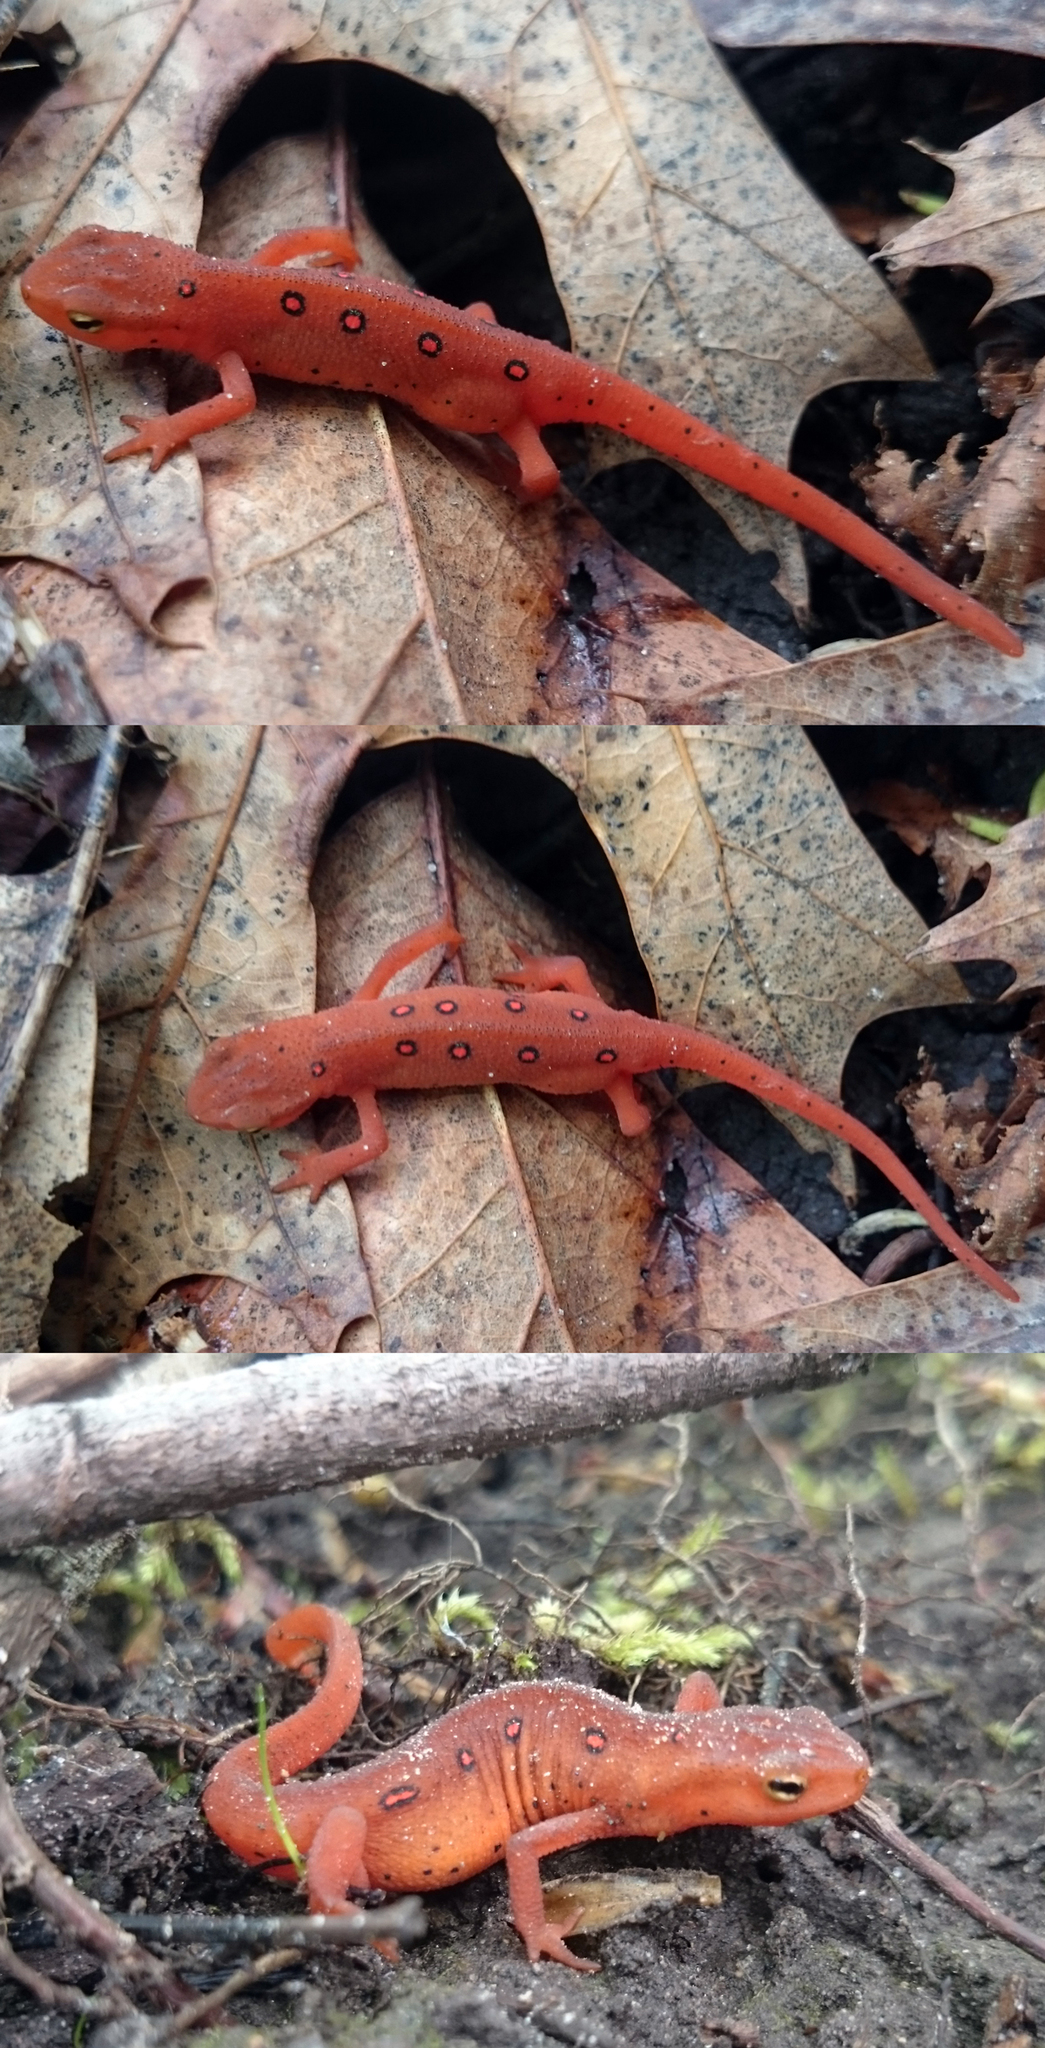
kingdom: Animalia
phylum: Chordata
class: Amphibia
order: Caudata
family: Salamandridae
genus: Notophthalmus
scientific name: Notophthalmus viridescens
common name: Eastern newt
